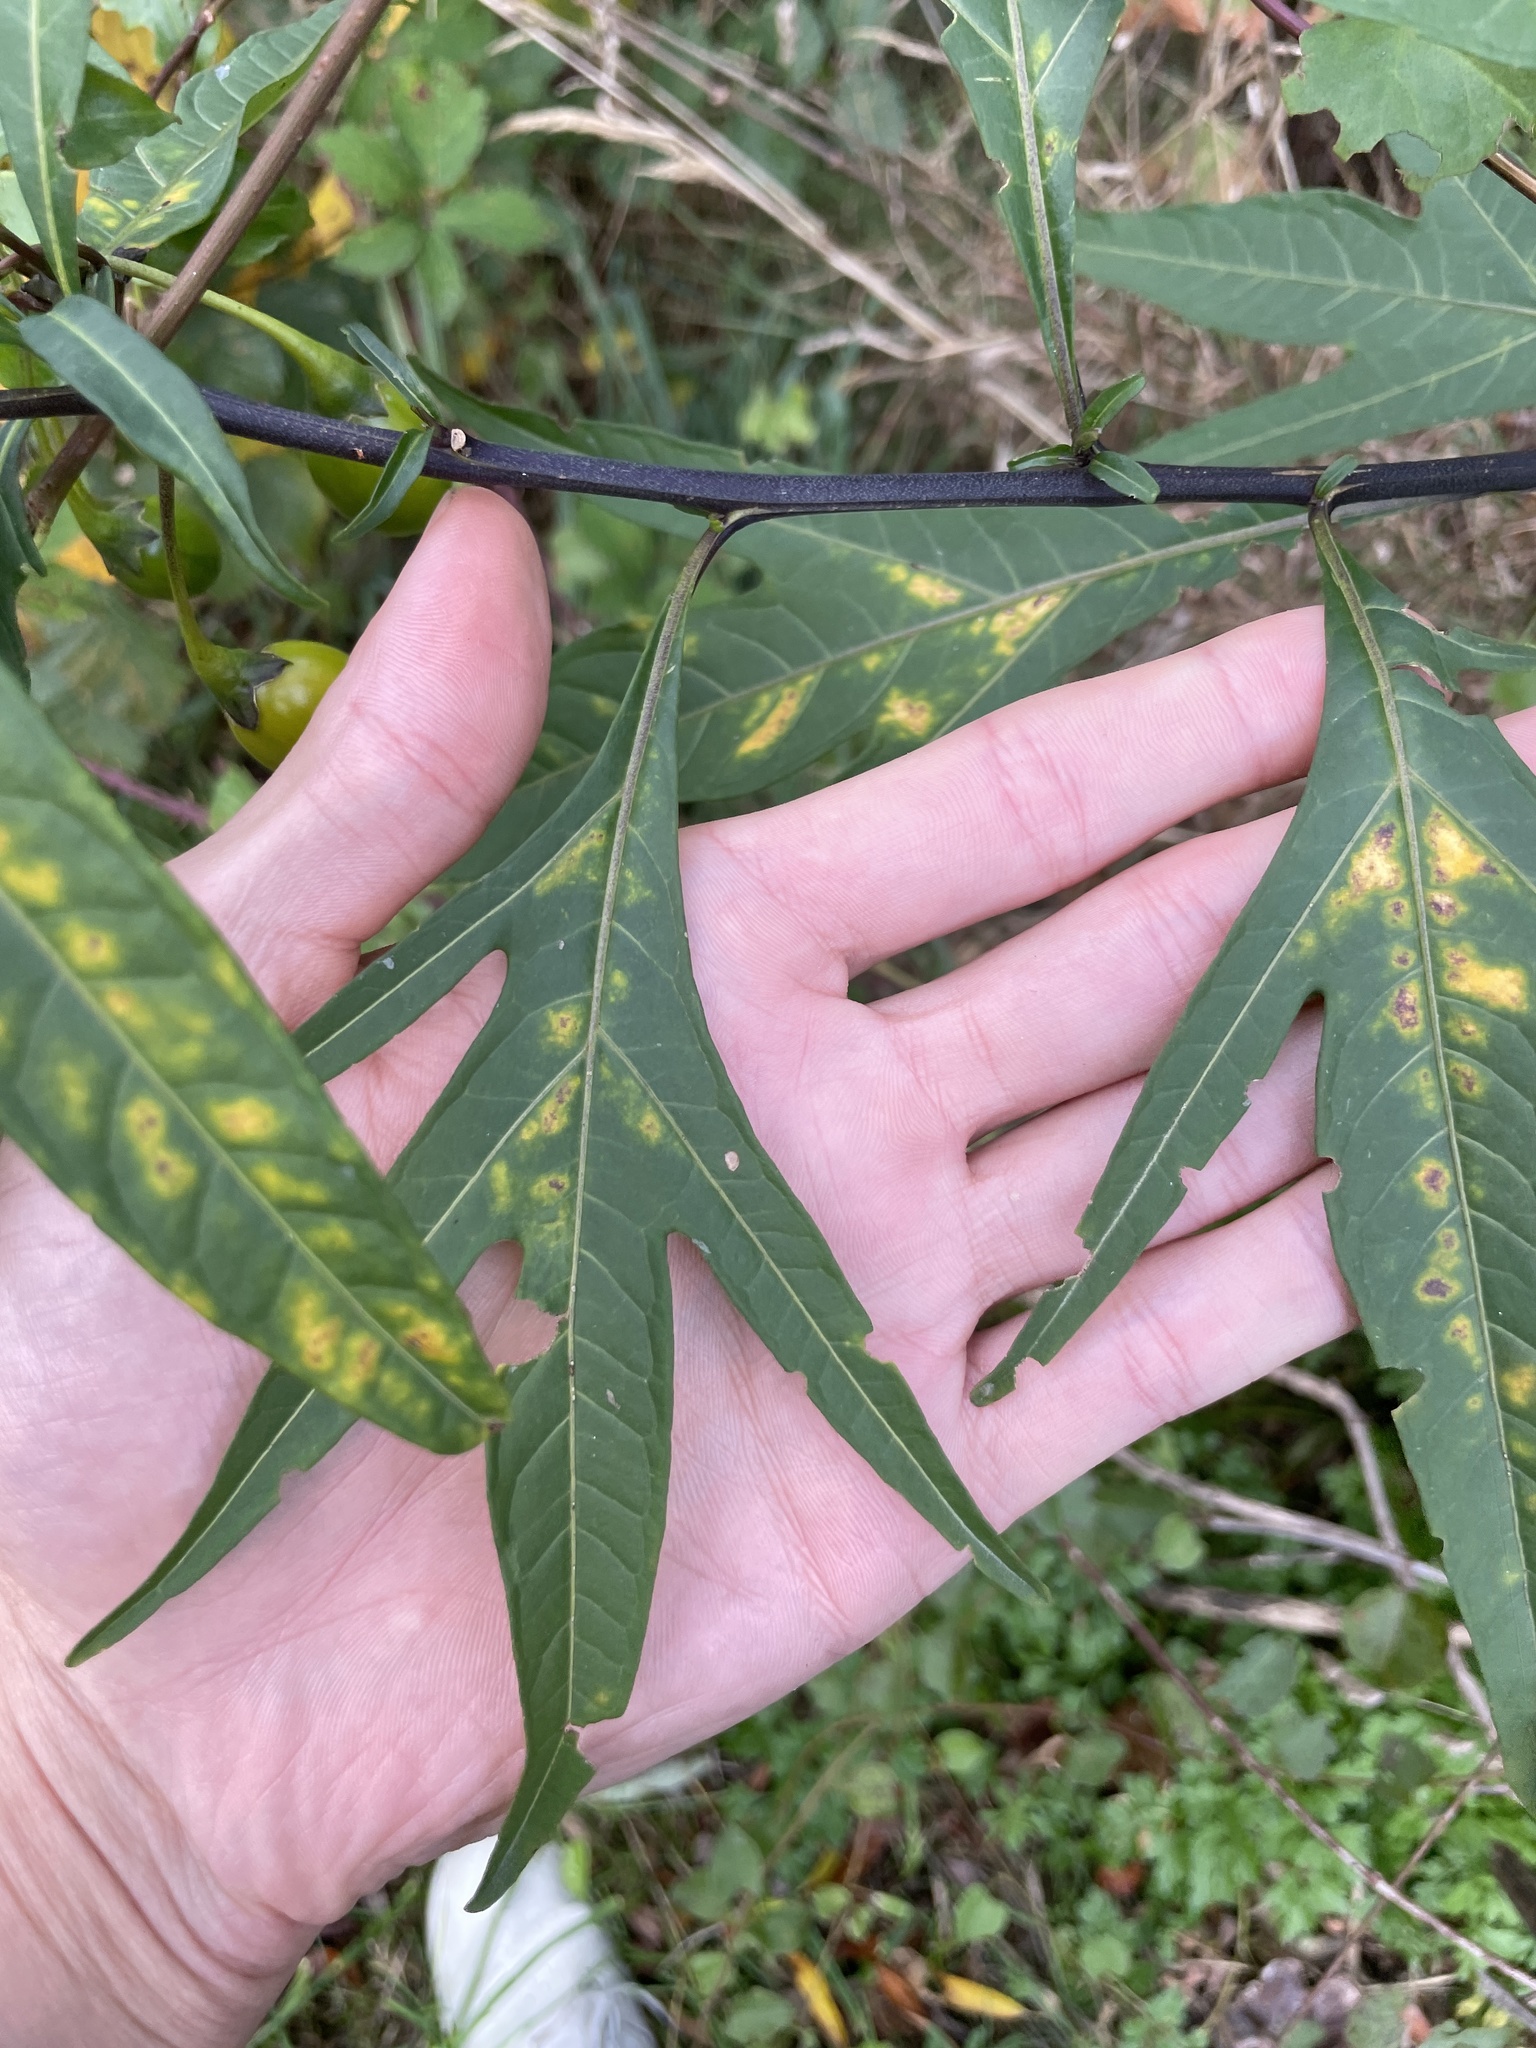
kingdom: Plantae
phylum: Tracheophyta
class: Magnoliopsida
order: Solanales
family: Solanaceae
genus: Solanum
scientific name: Solanum laciniatum
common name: Kangaroo-apple
